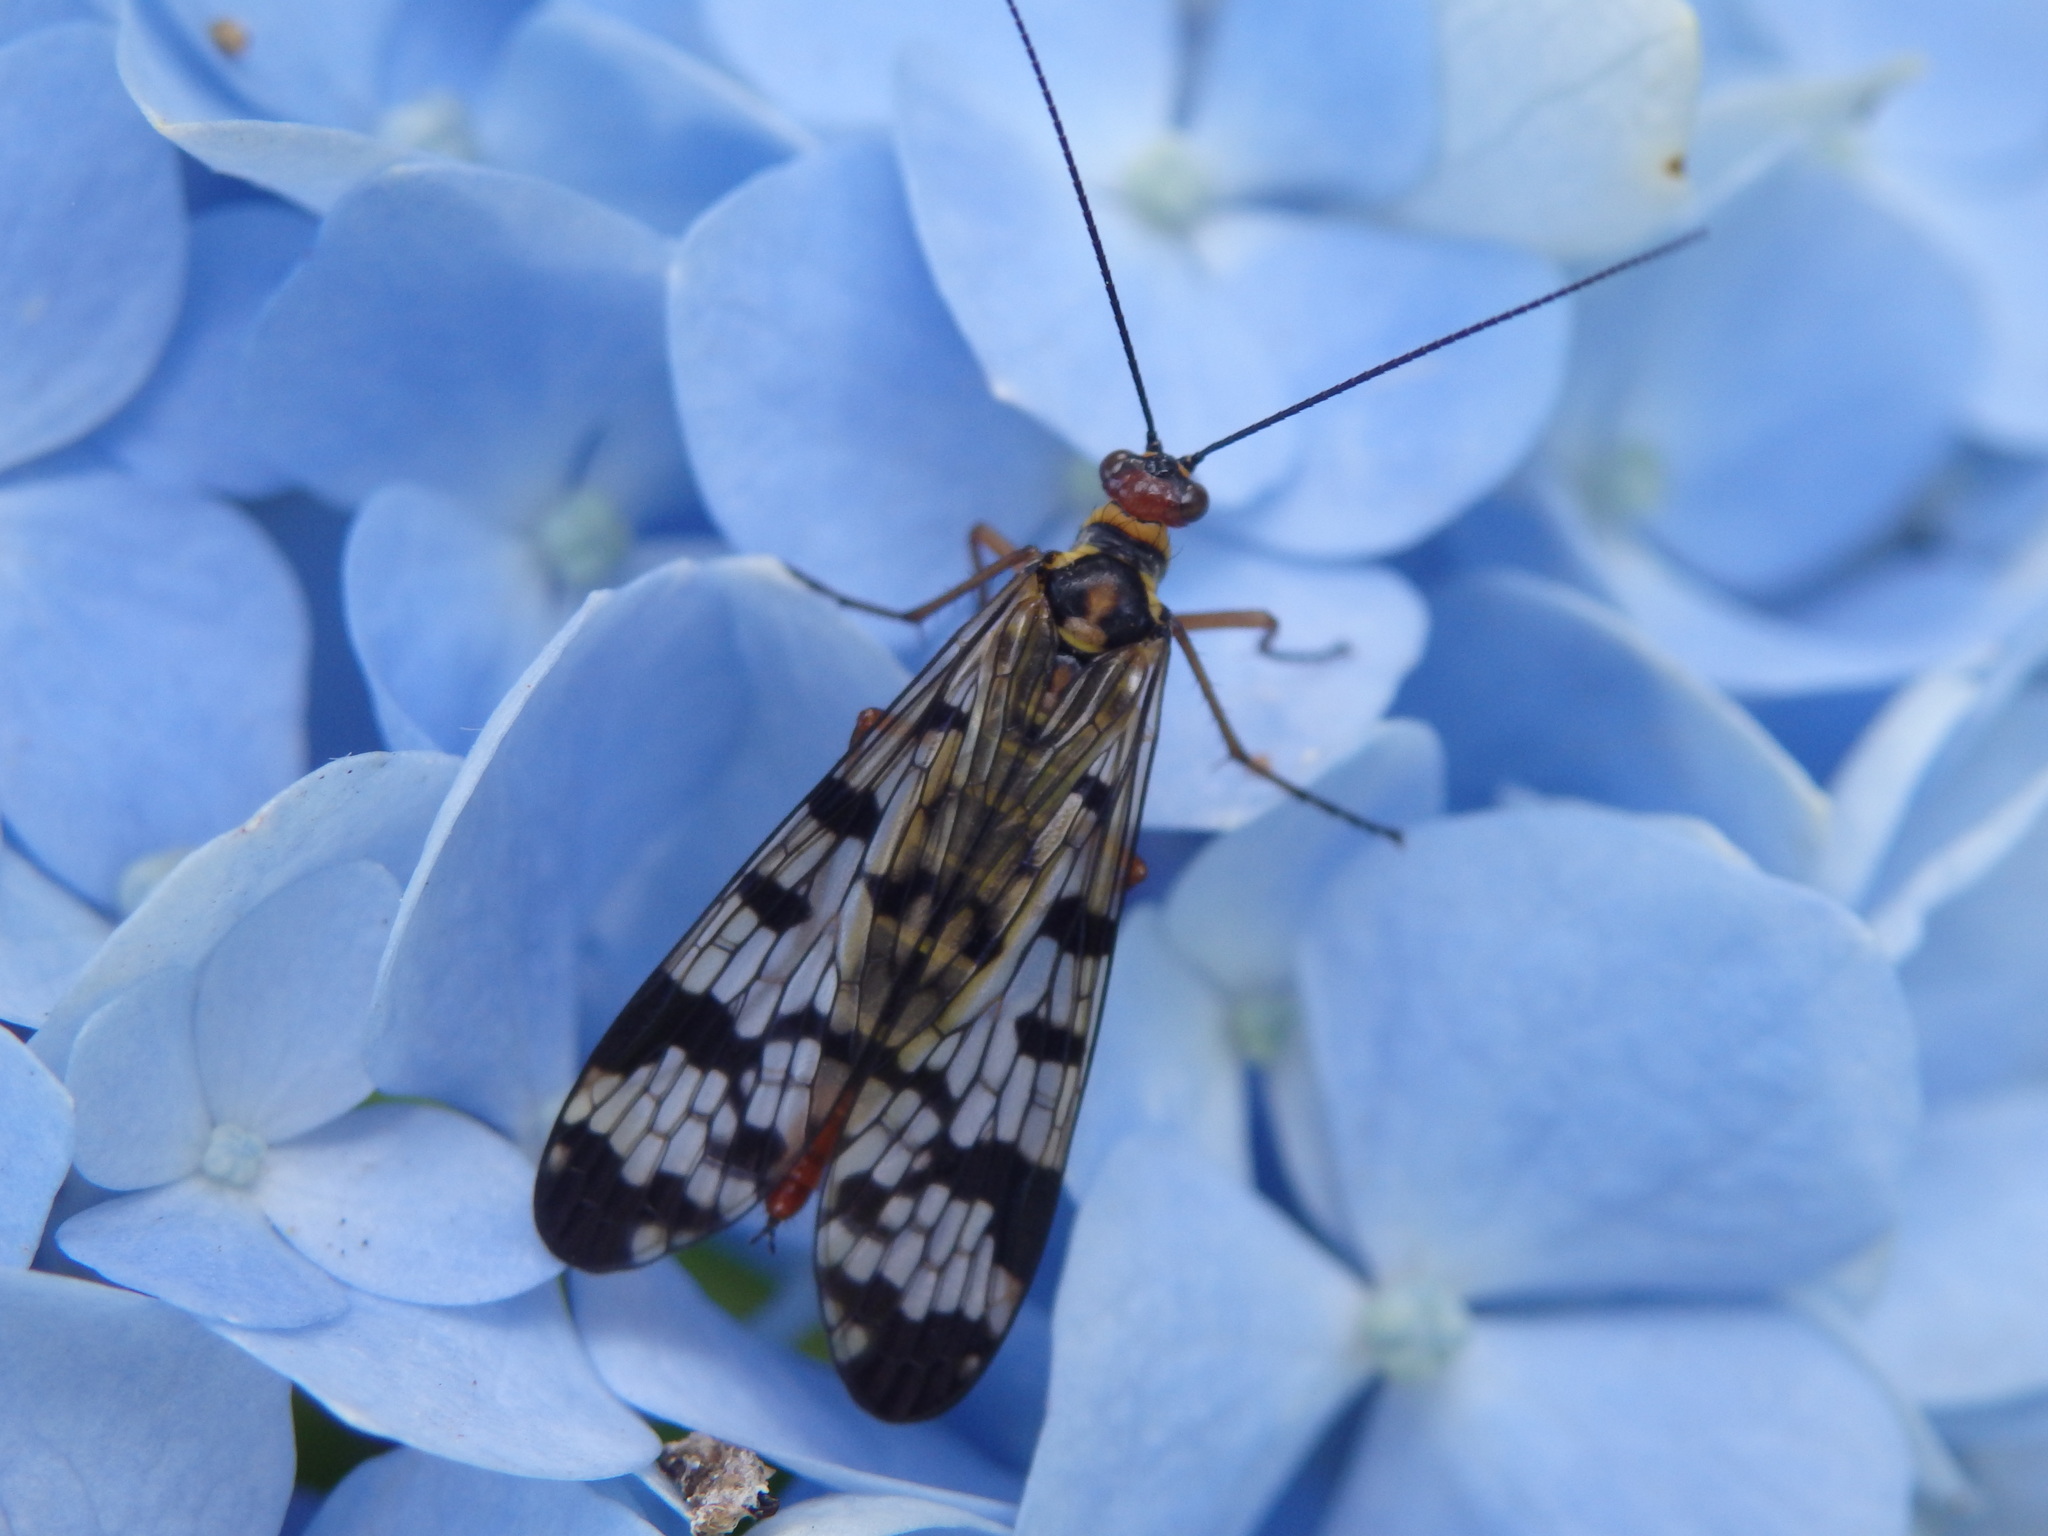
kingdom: Animalia
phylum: Arthropoda
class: Insecta
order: Mecoptera
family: Panorpidae
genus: Panorpa
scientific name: Panorpa meridionalis
